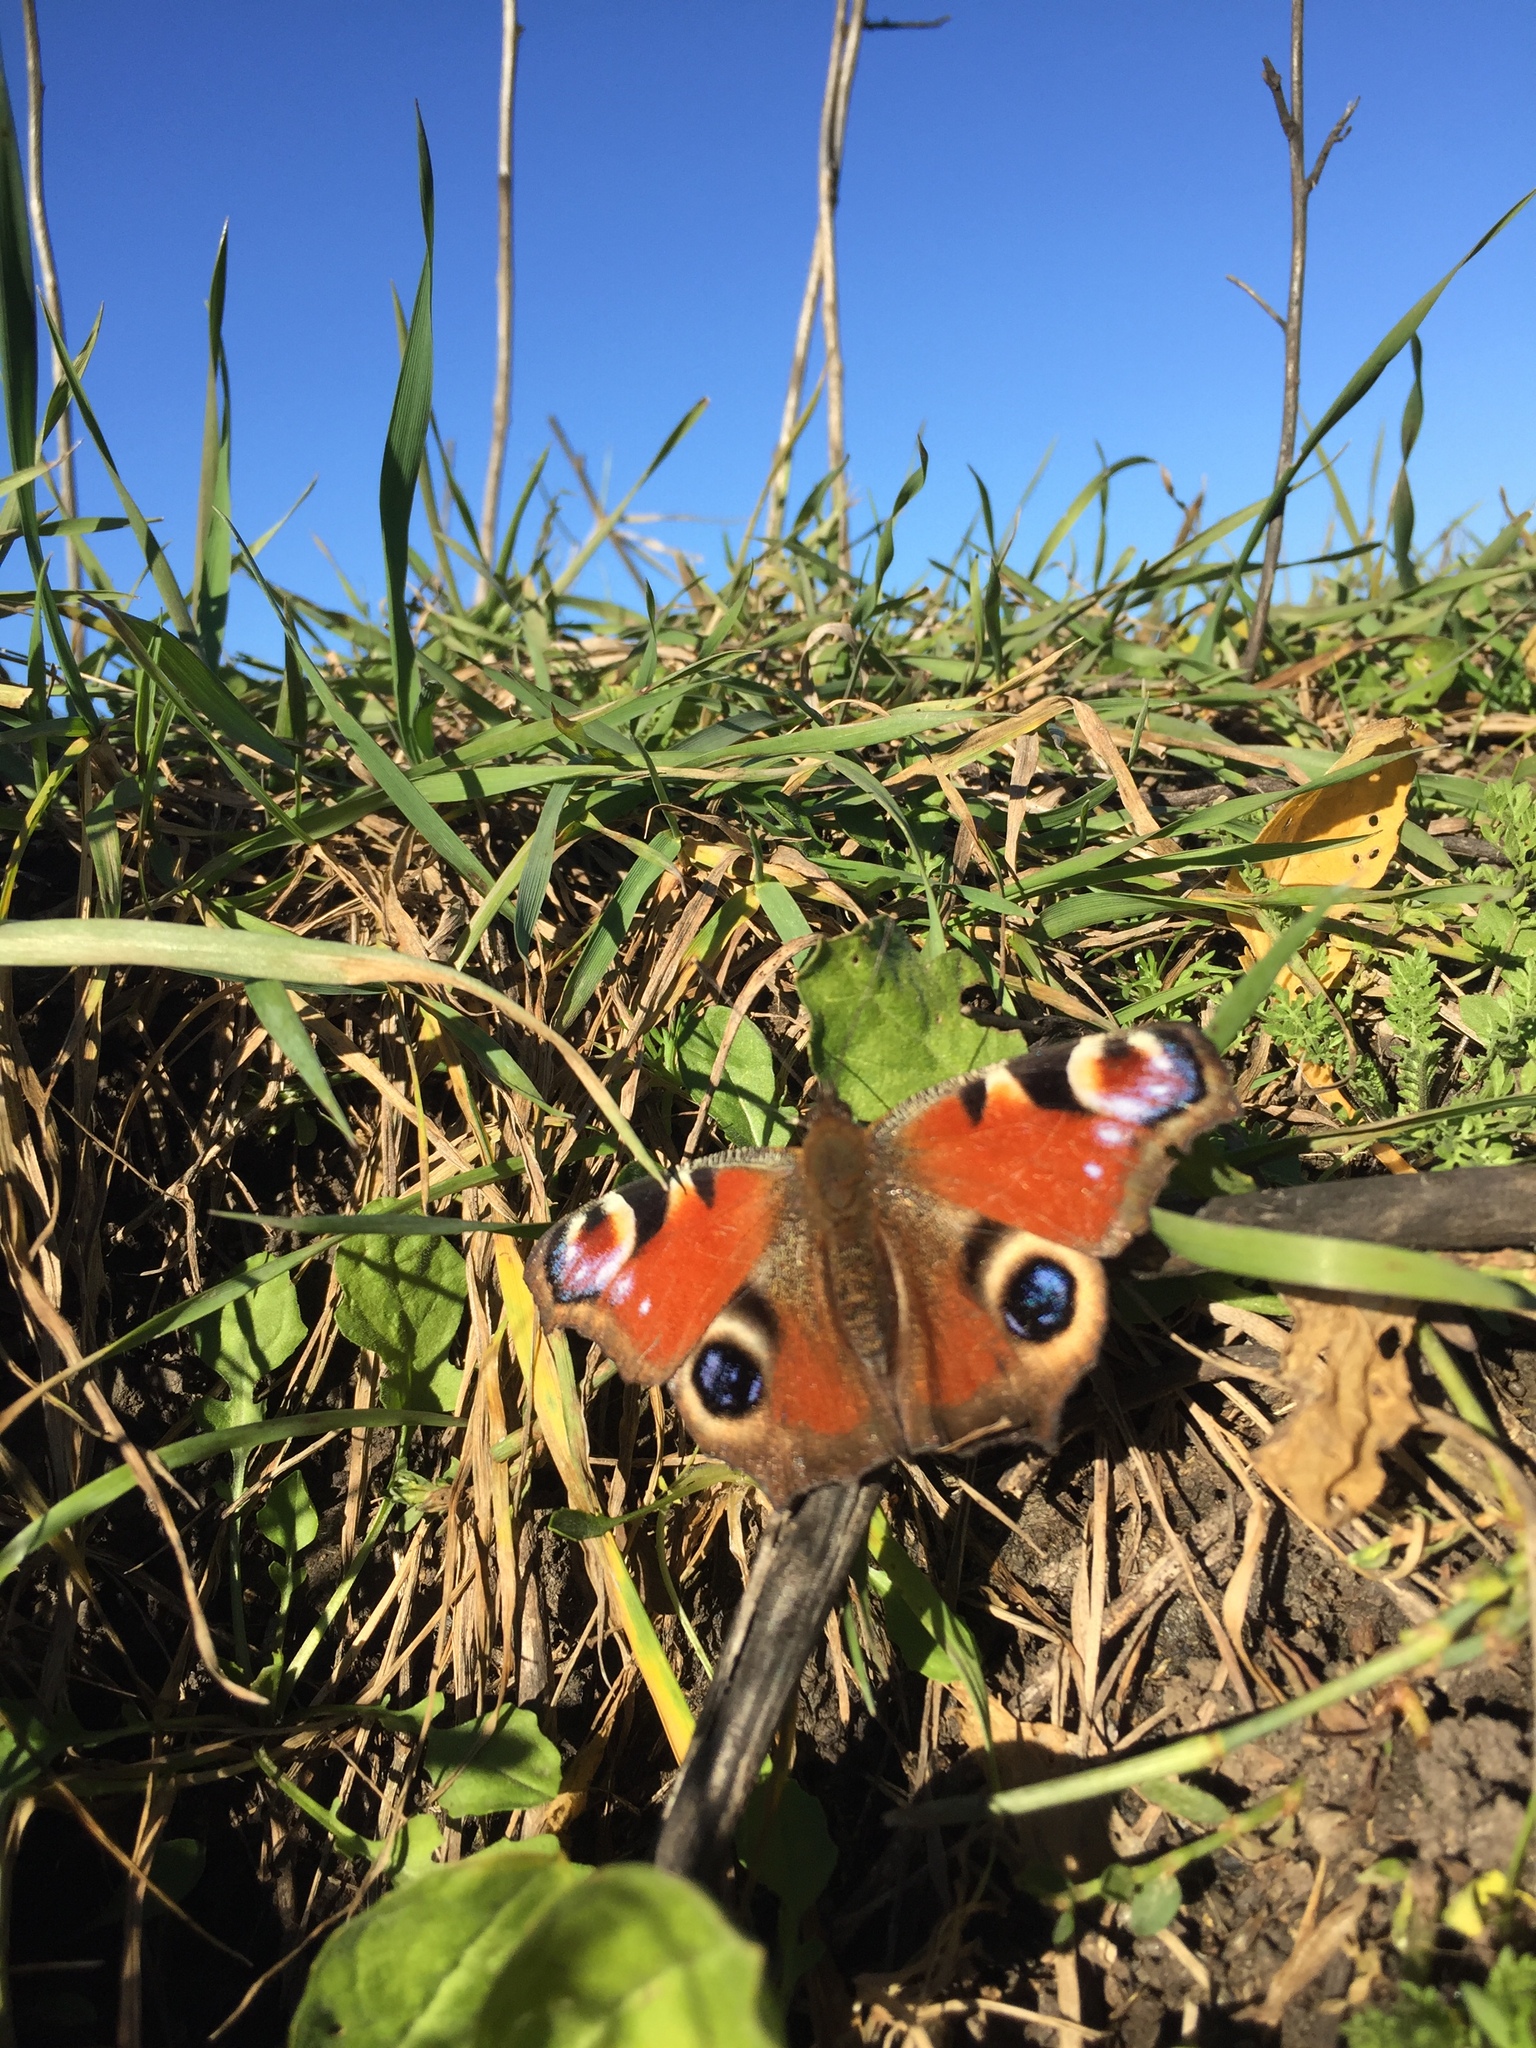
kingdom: Animalia
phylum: Arthropoda
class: Insecta
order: Lepidoptera
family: Nymphalidae
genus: Aglais
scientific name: Aglais io
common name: Peacock
